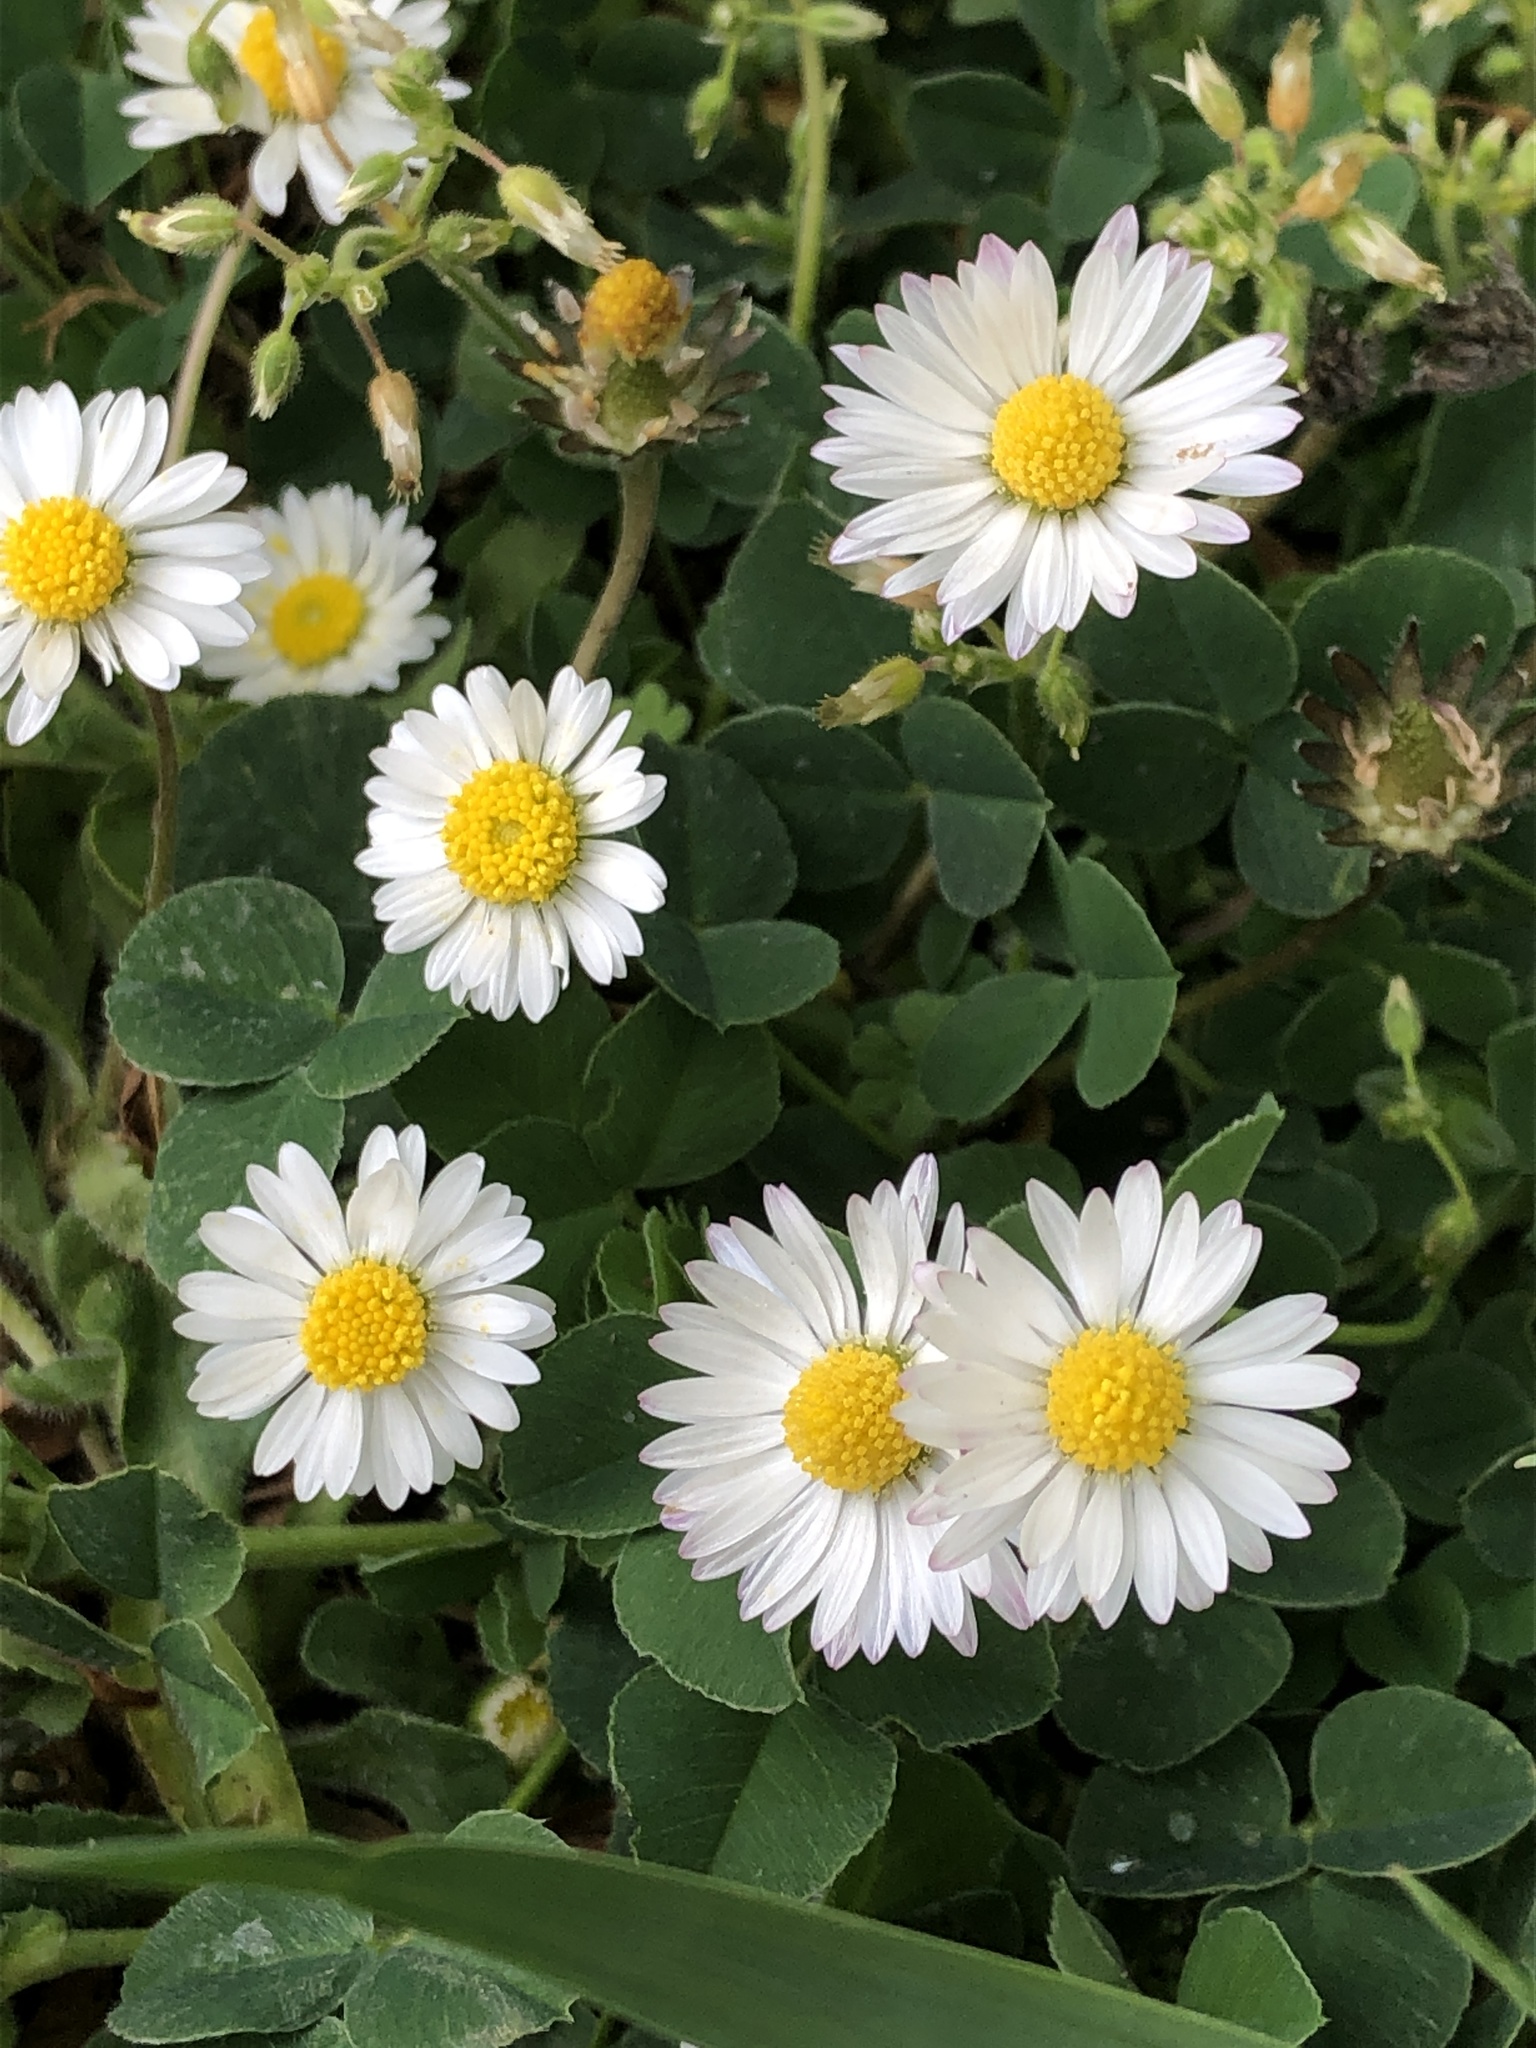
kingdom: Plantae
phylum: Tracheophyta
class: Magnoliopsida
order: Asterales
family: Asteraceae
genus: Bellis
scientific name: Bellis perennis
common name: Lawndaisy
